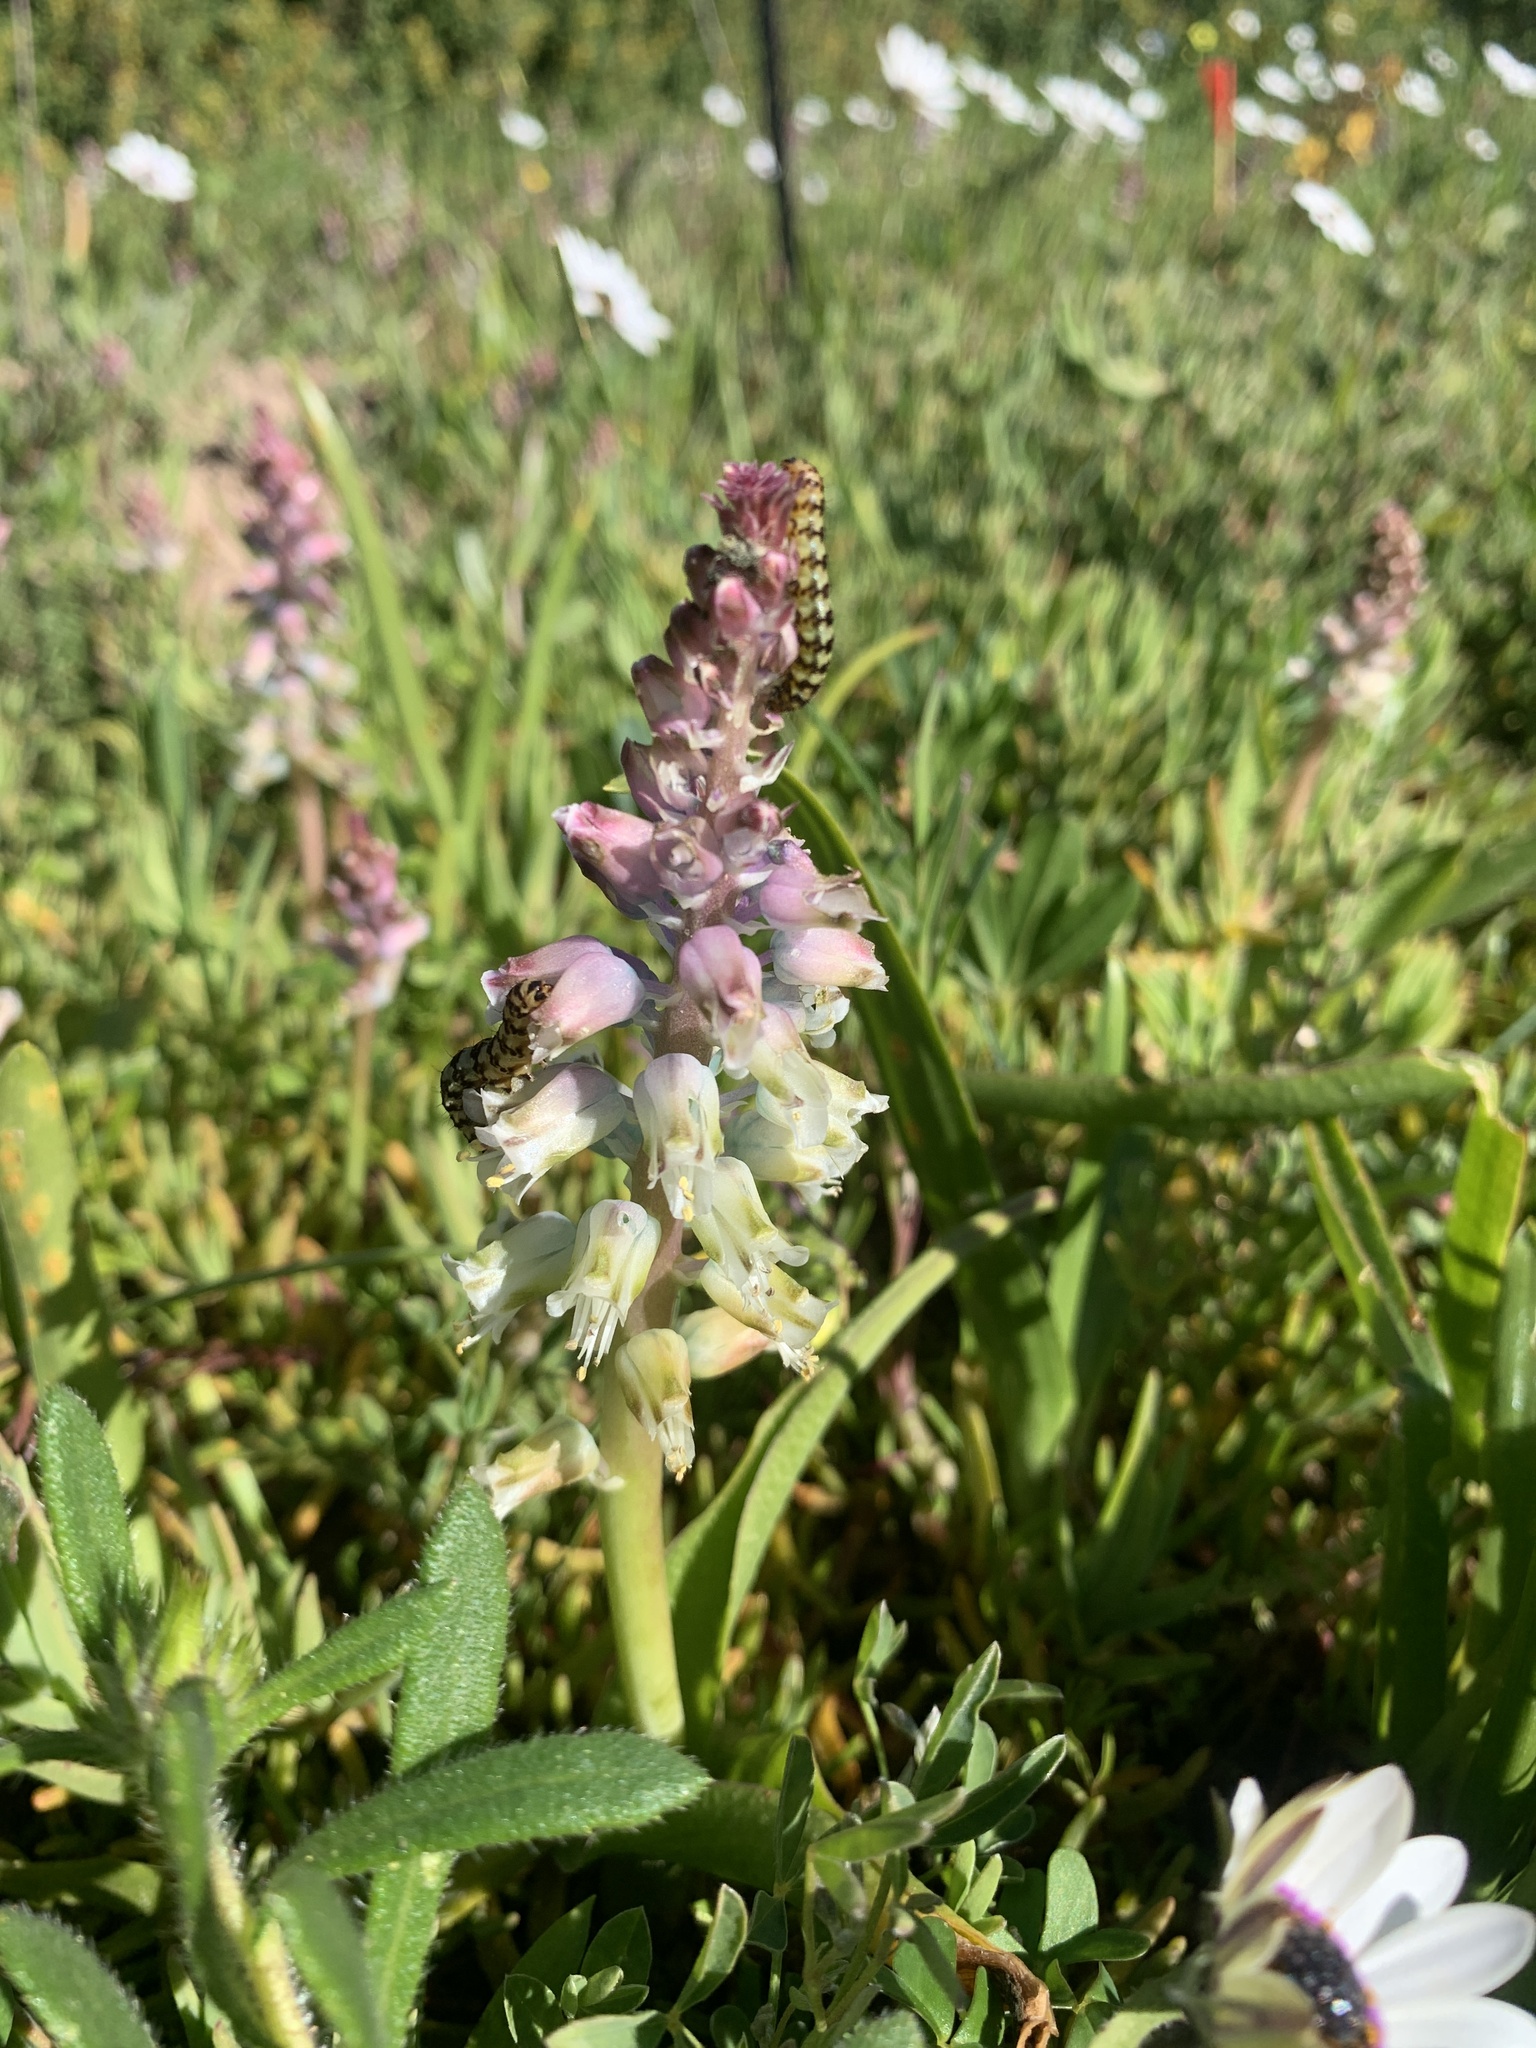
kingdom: Plantae
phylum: Tracheophyta
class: Liliopsida
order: Asparagales
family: Asparagaceae
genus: Lachenalia
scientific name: Lachenalia pallida
